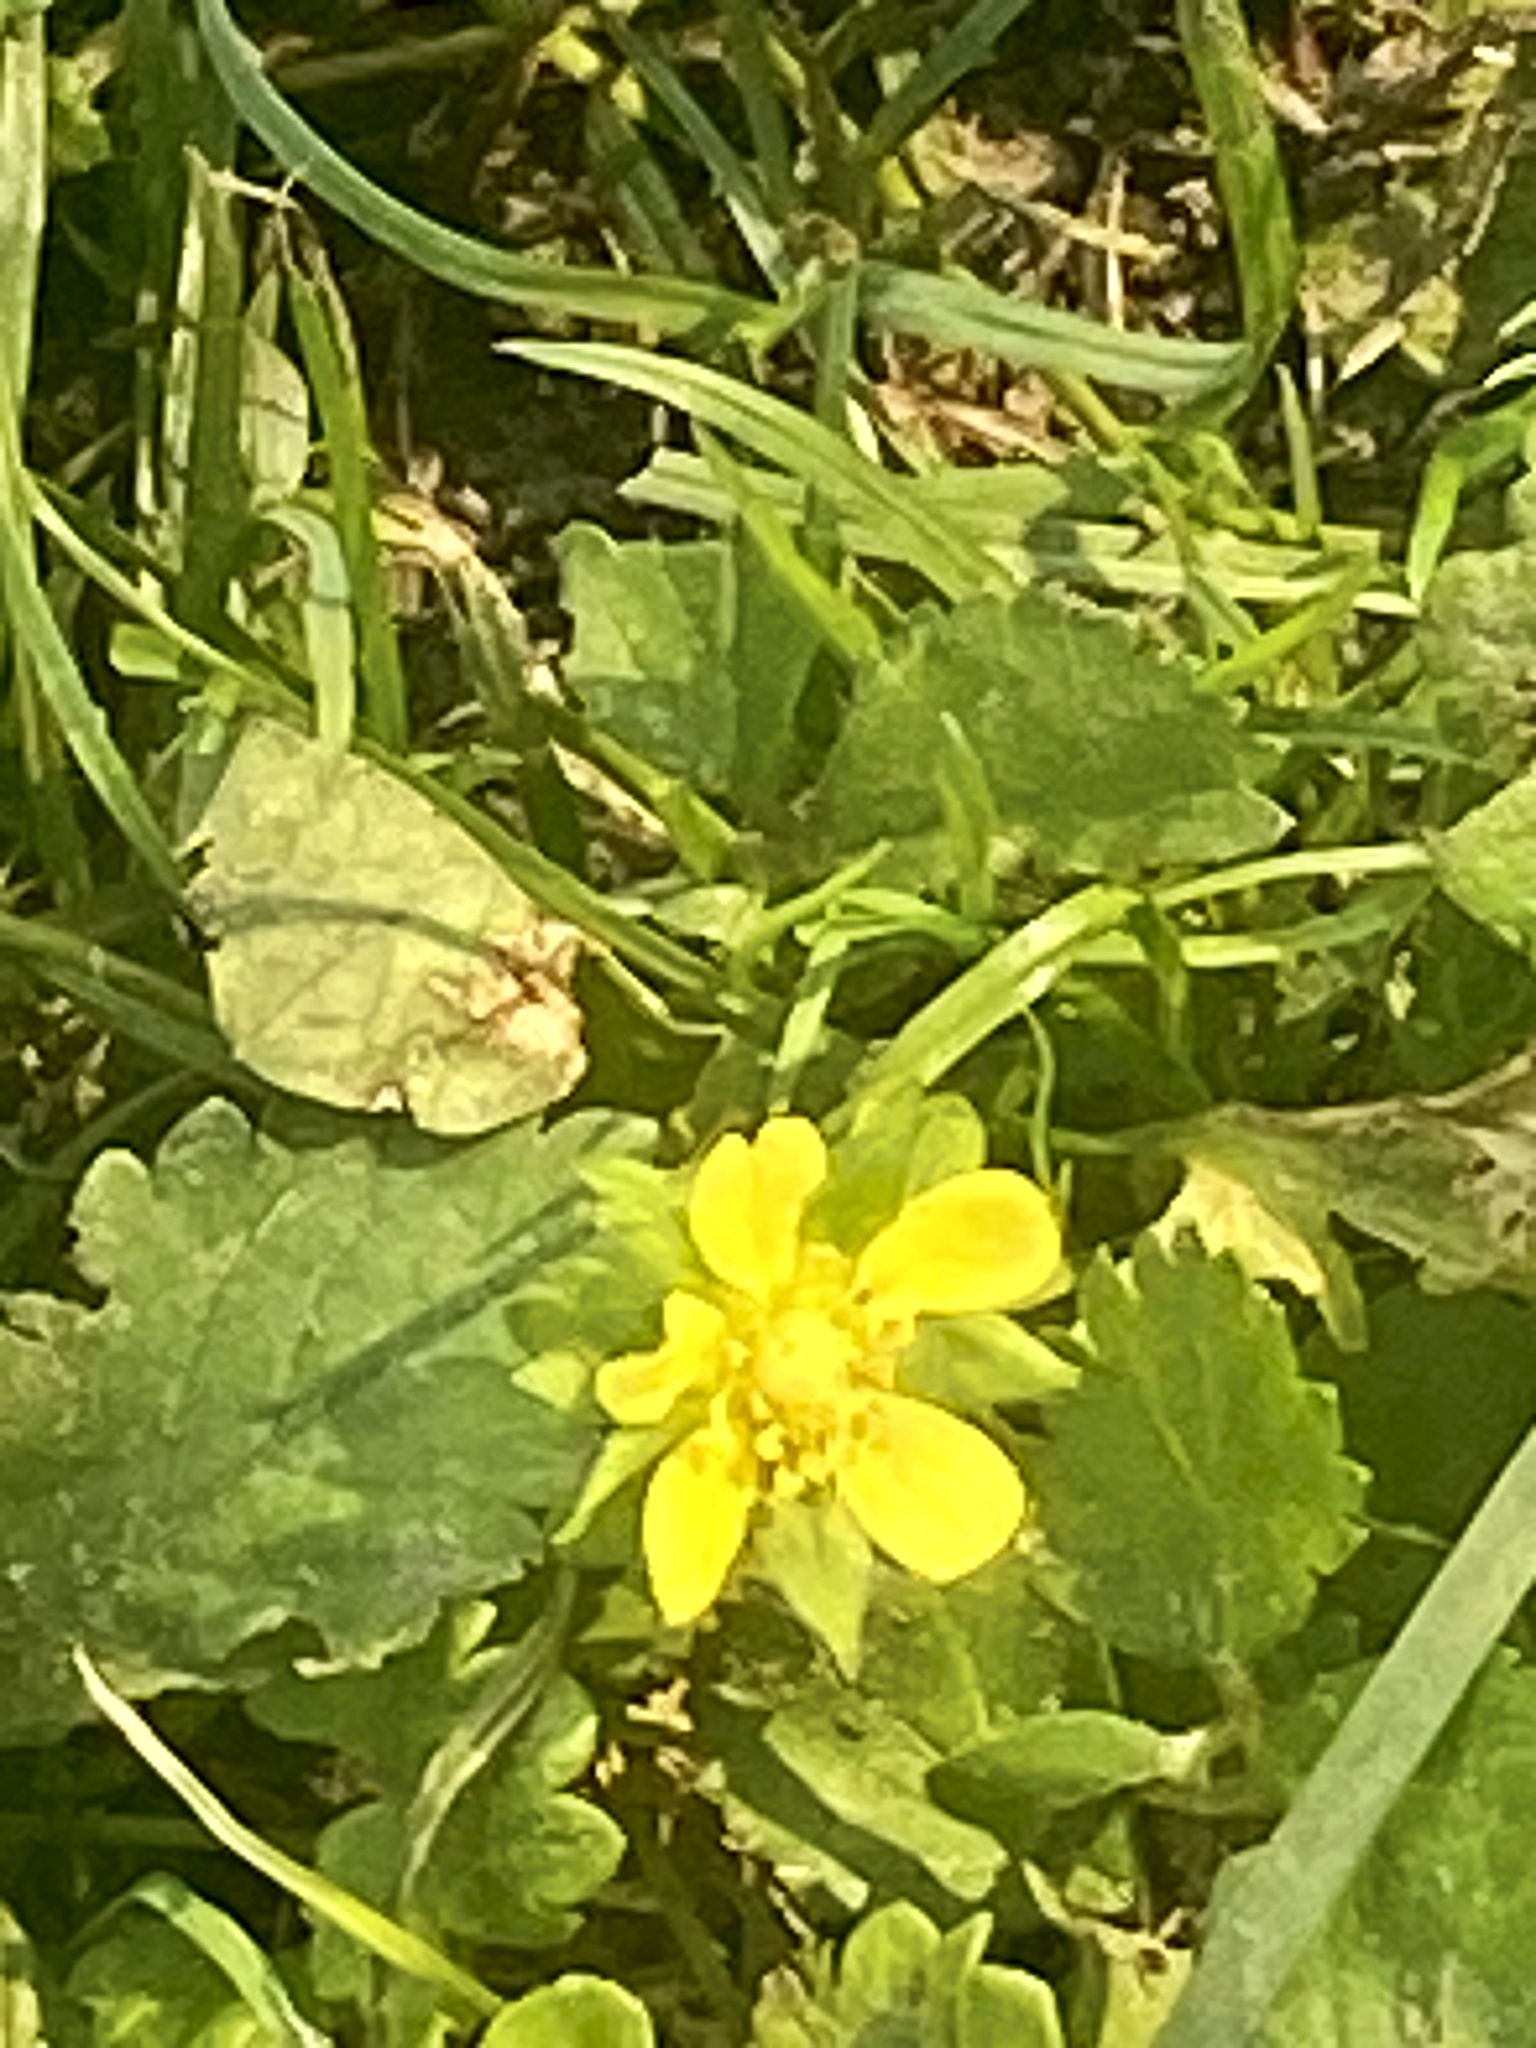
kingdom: Plantae
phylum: Tracheophyta
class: Magnoliopsida
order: Rosales
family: Rosaceae
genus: Potentilla
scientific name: Potentilla indica
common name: Yellow-flowered strawberry
